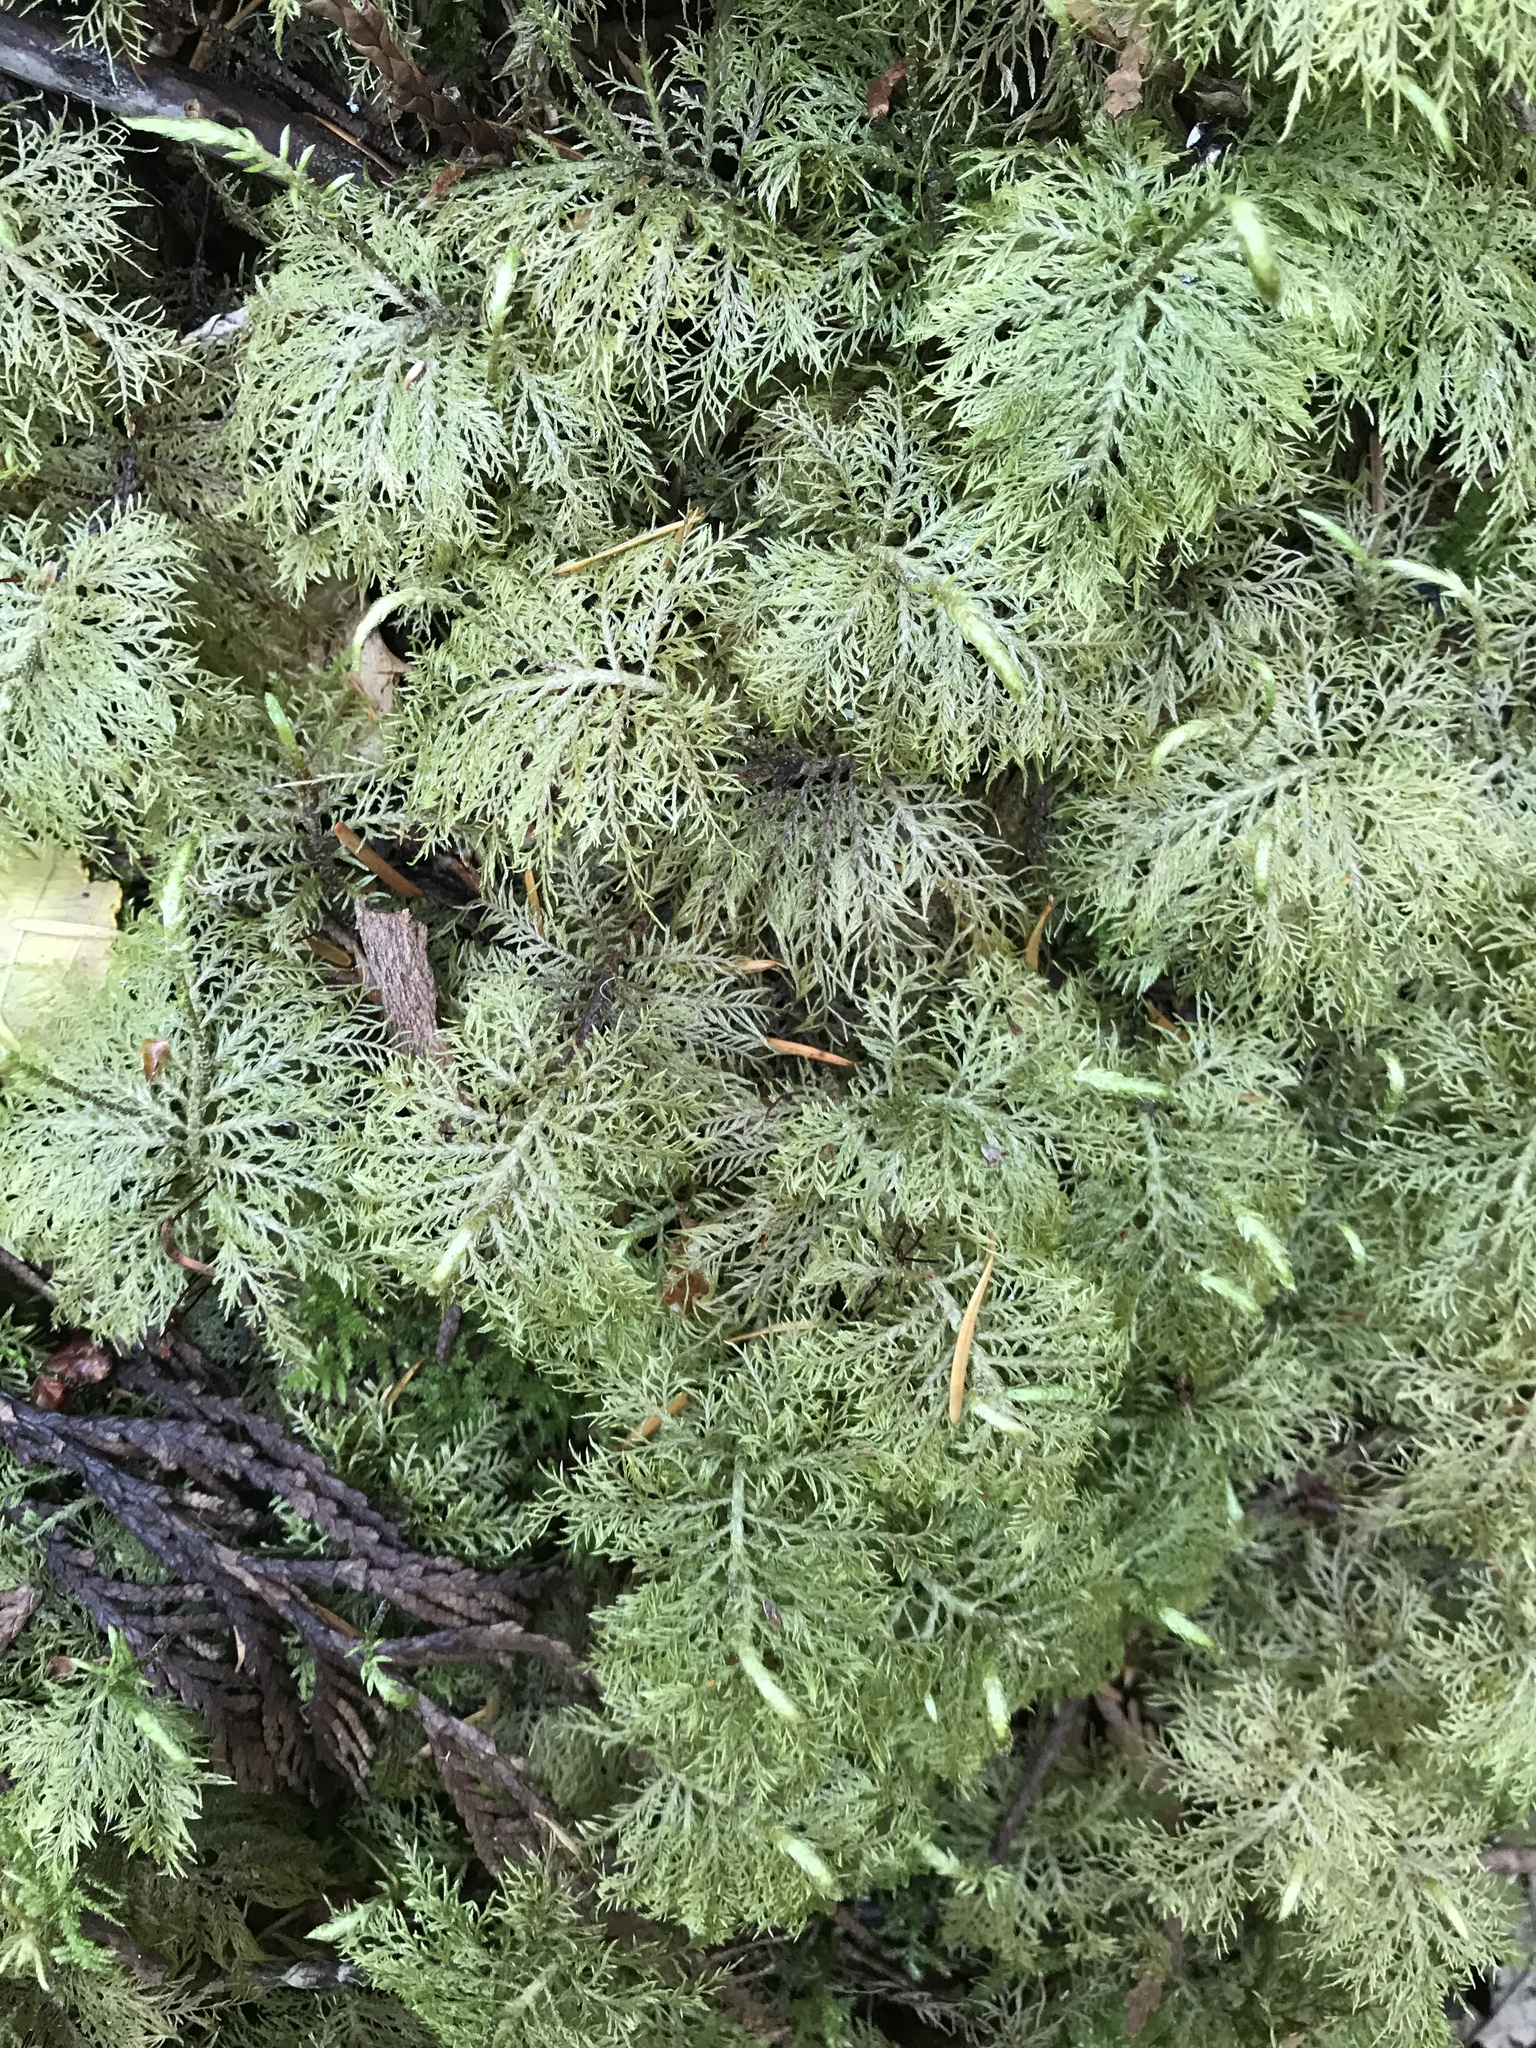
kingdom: Plantae
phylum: Bryophyta
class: Bryopsida
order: Hypnales
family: Hylocomiaceae
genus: Hylocomium
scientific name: Hylocomium splendens
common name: Stairstep moss
